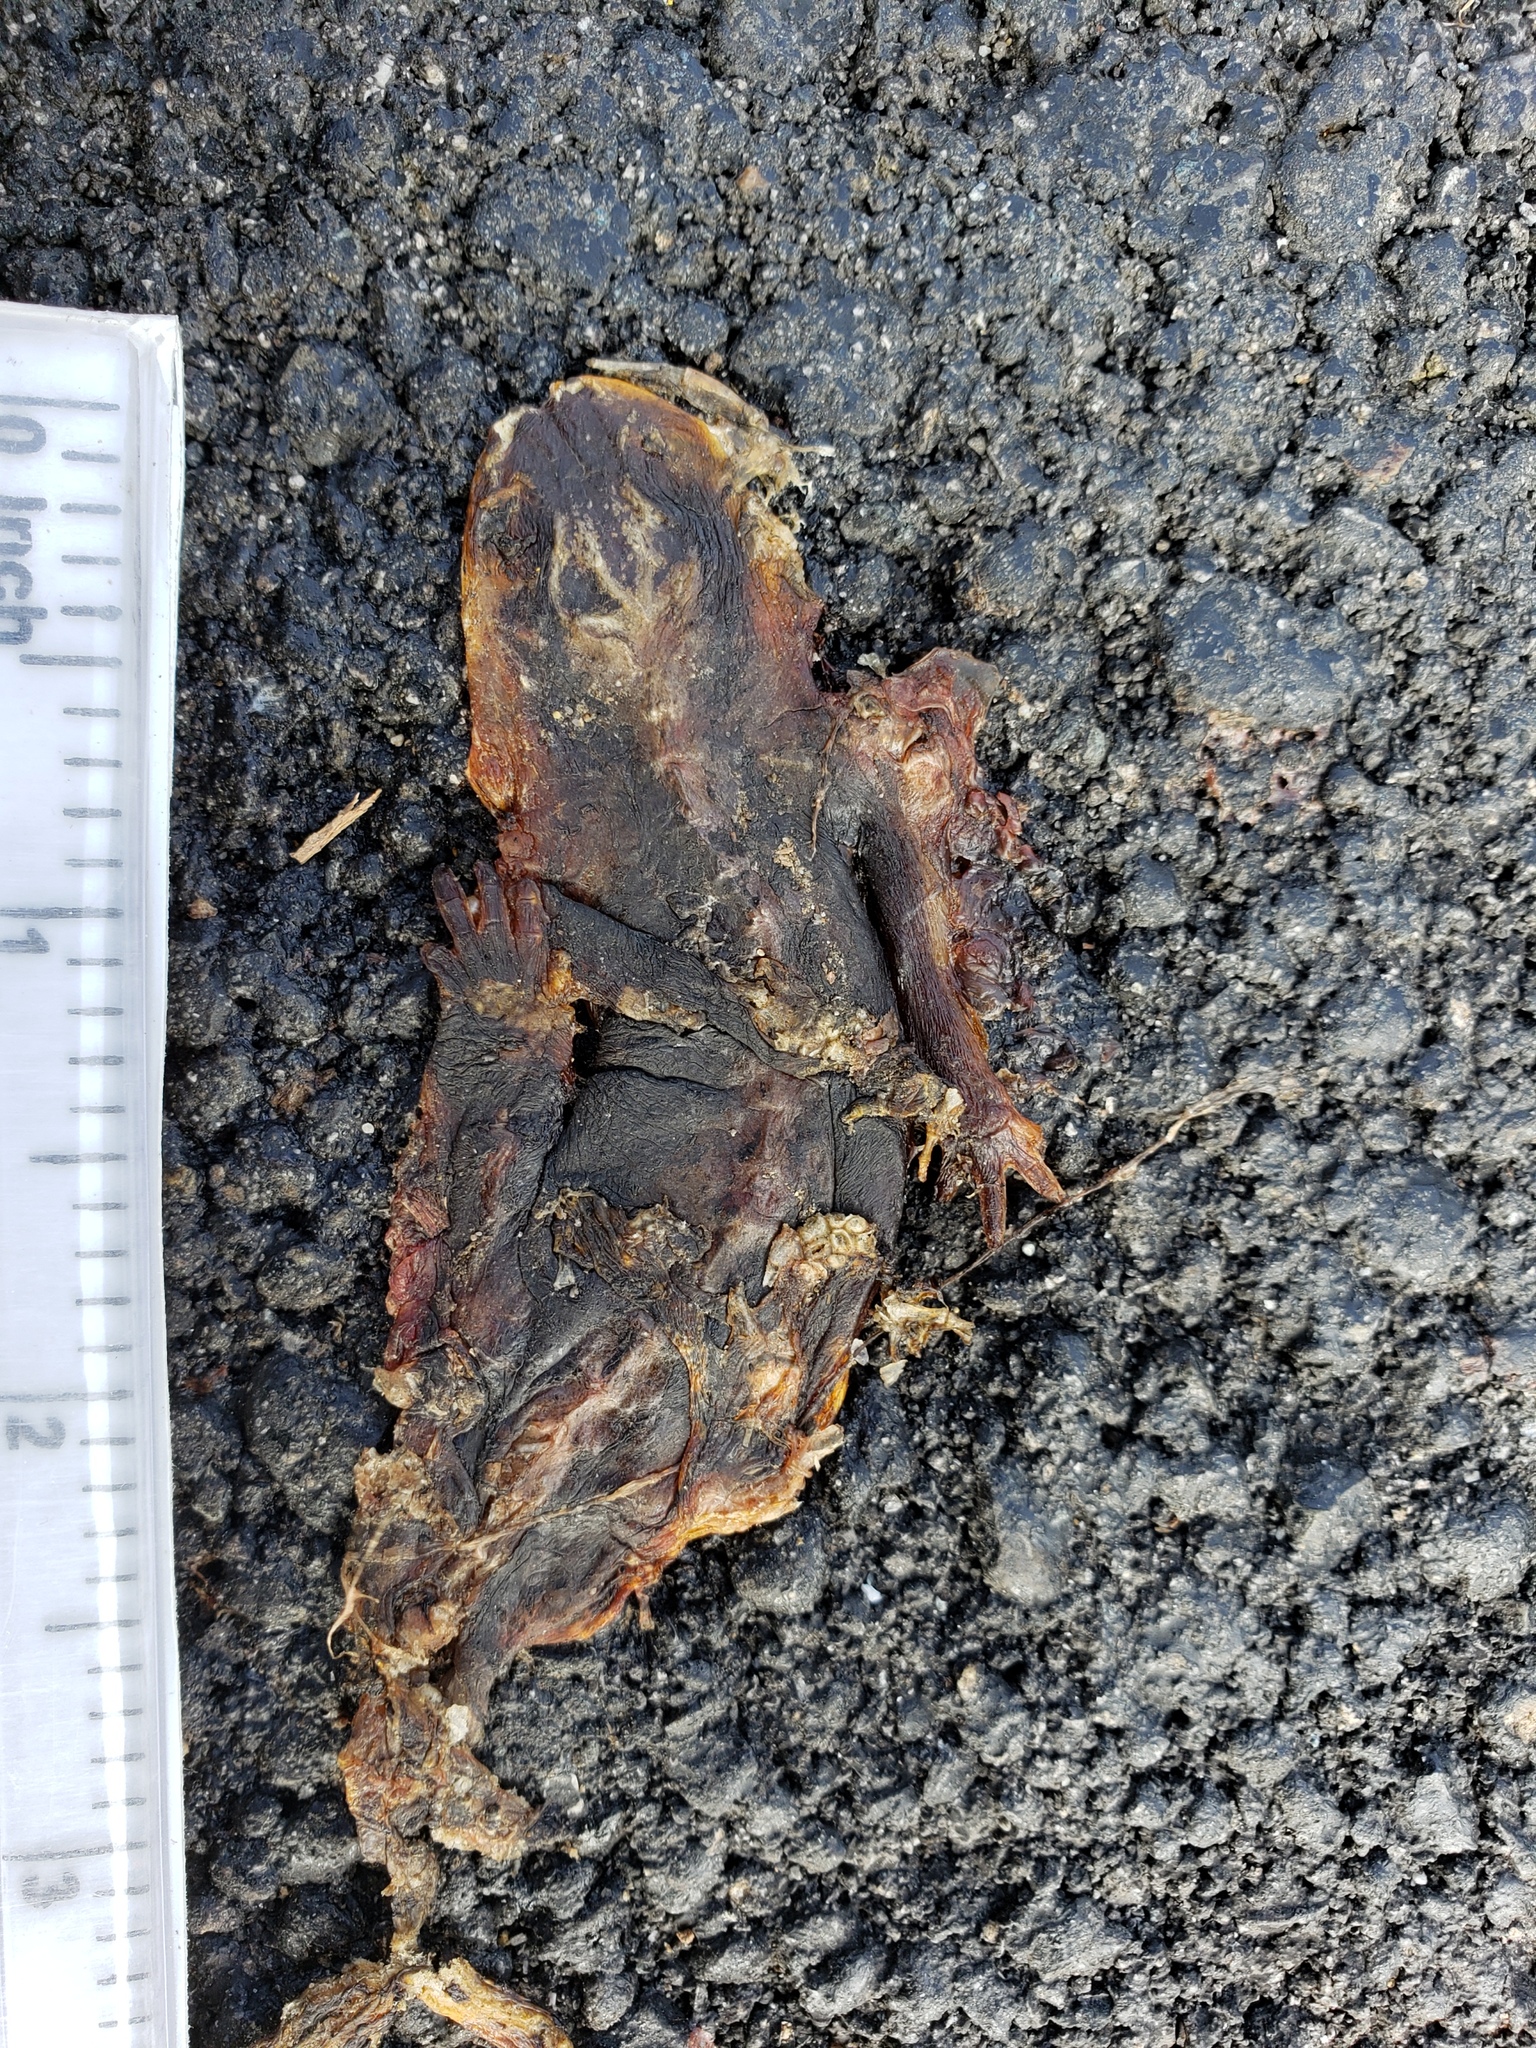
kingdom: Animalia
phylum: Chordata
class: Amphibia
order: Caudata
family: Salamandridae
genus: Taricha
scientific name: Taricha
